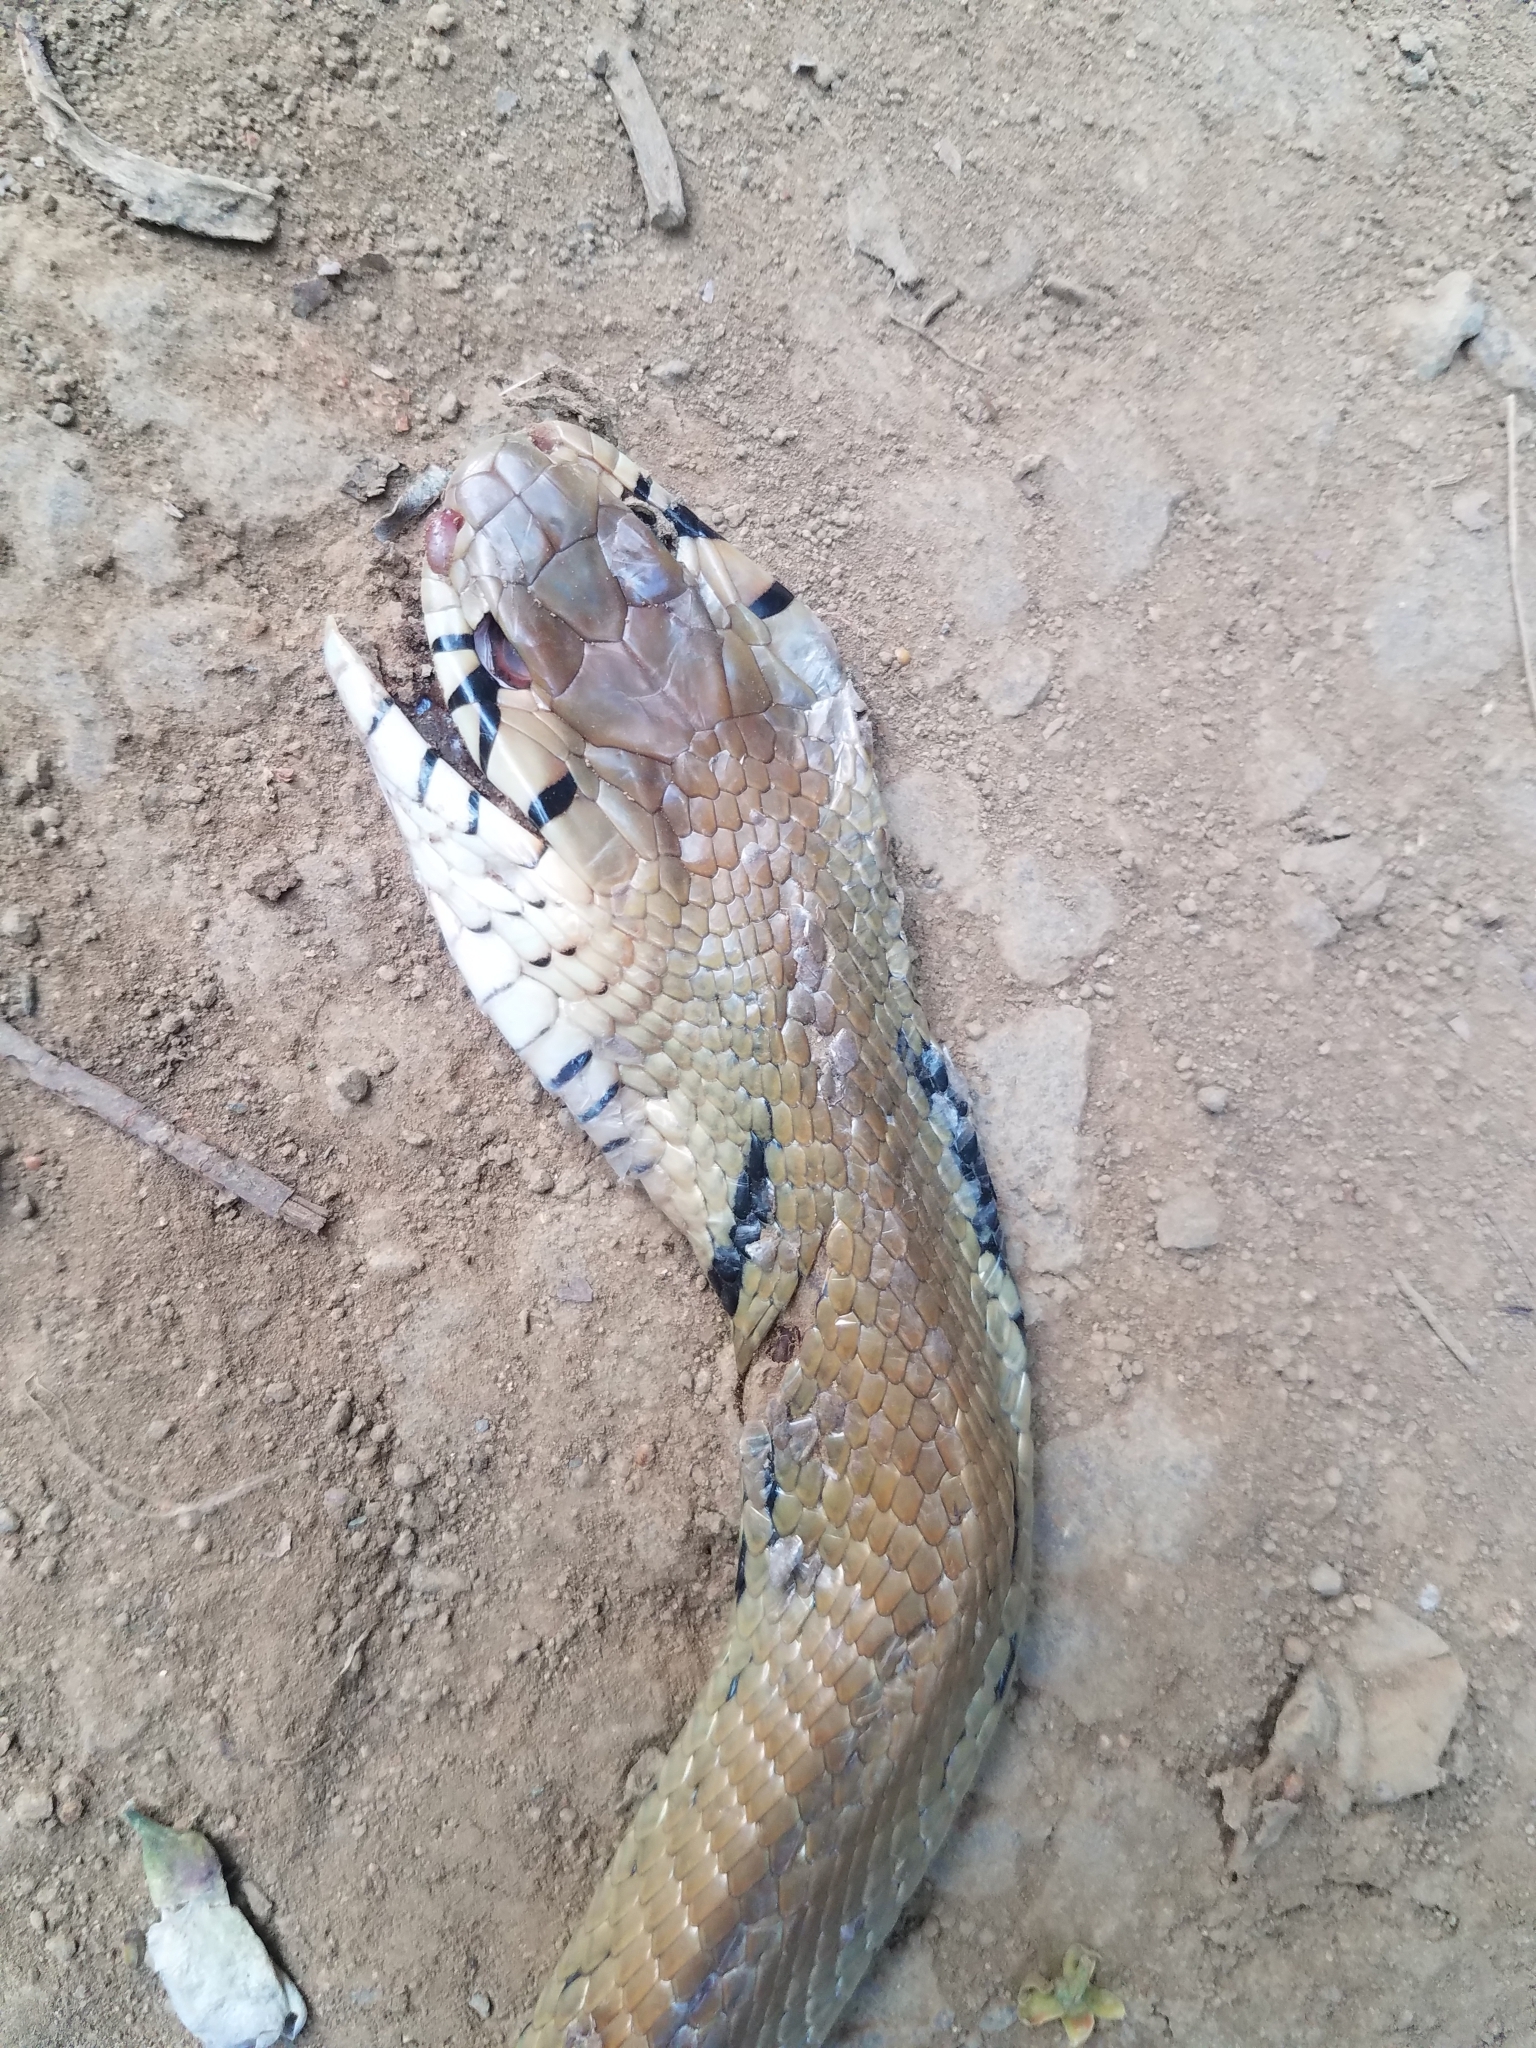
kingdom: Animalia
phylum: Chordata
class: Squamata
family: Colubridae
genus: Drymarchon
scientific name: Drymarchon melanurus
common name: Central american indigo snake
